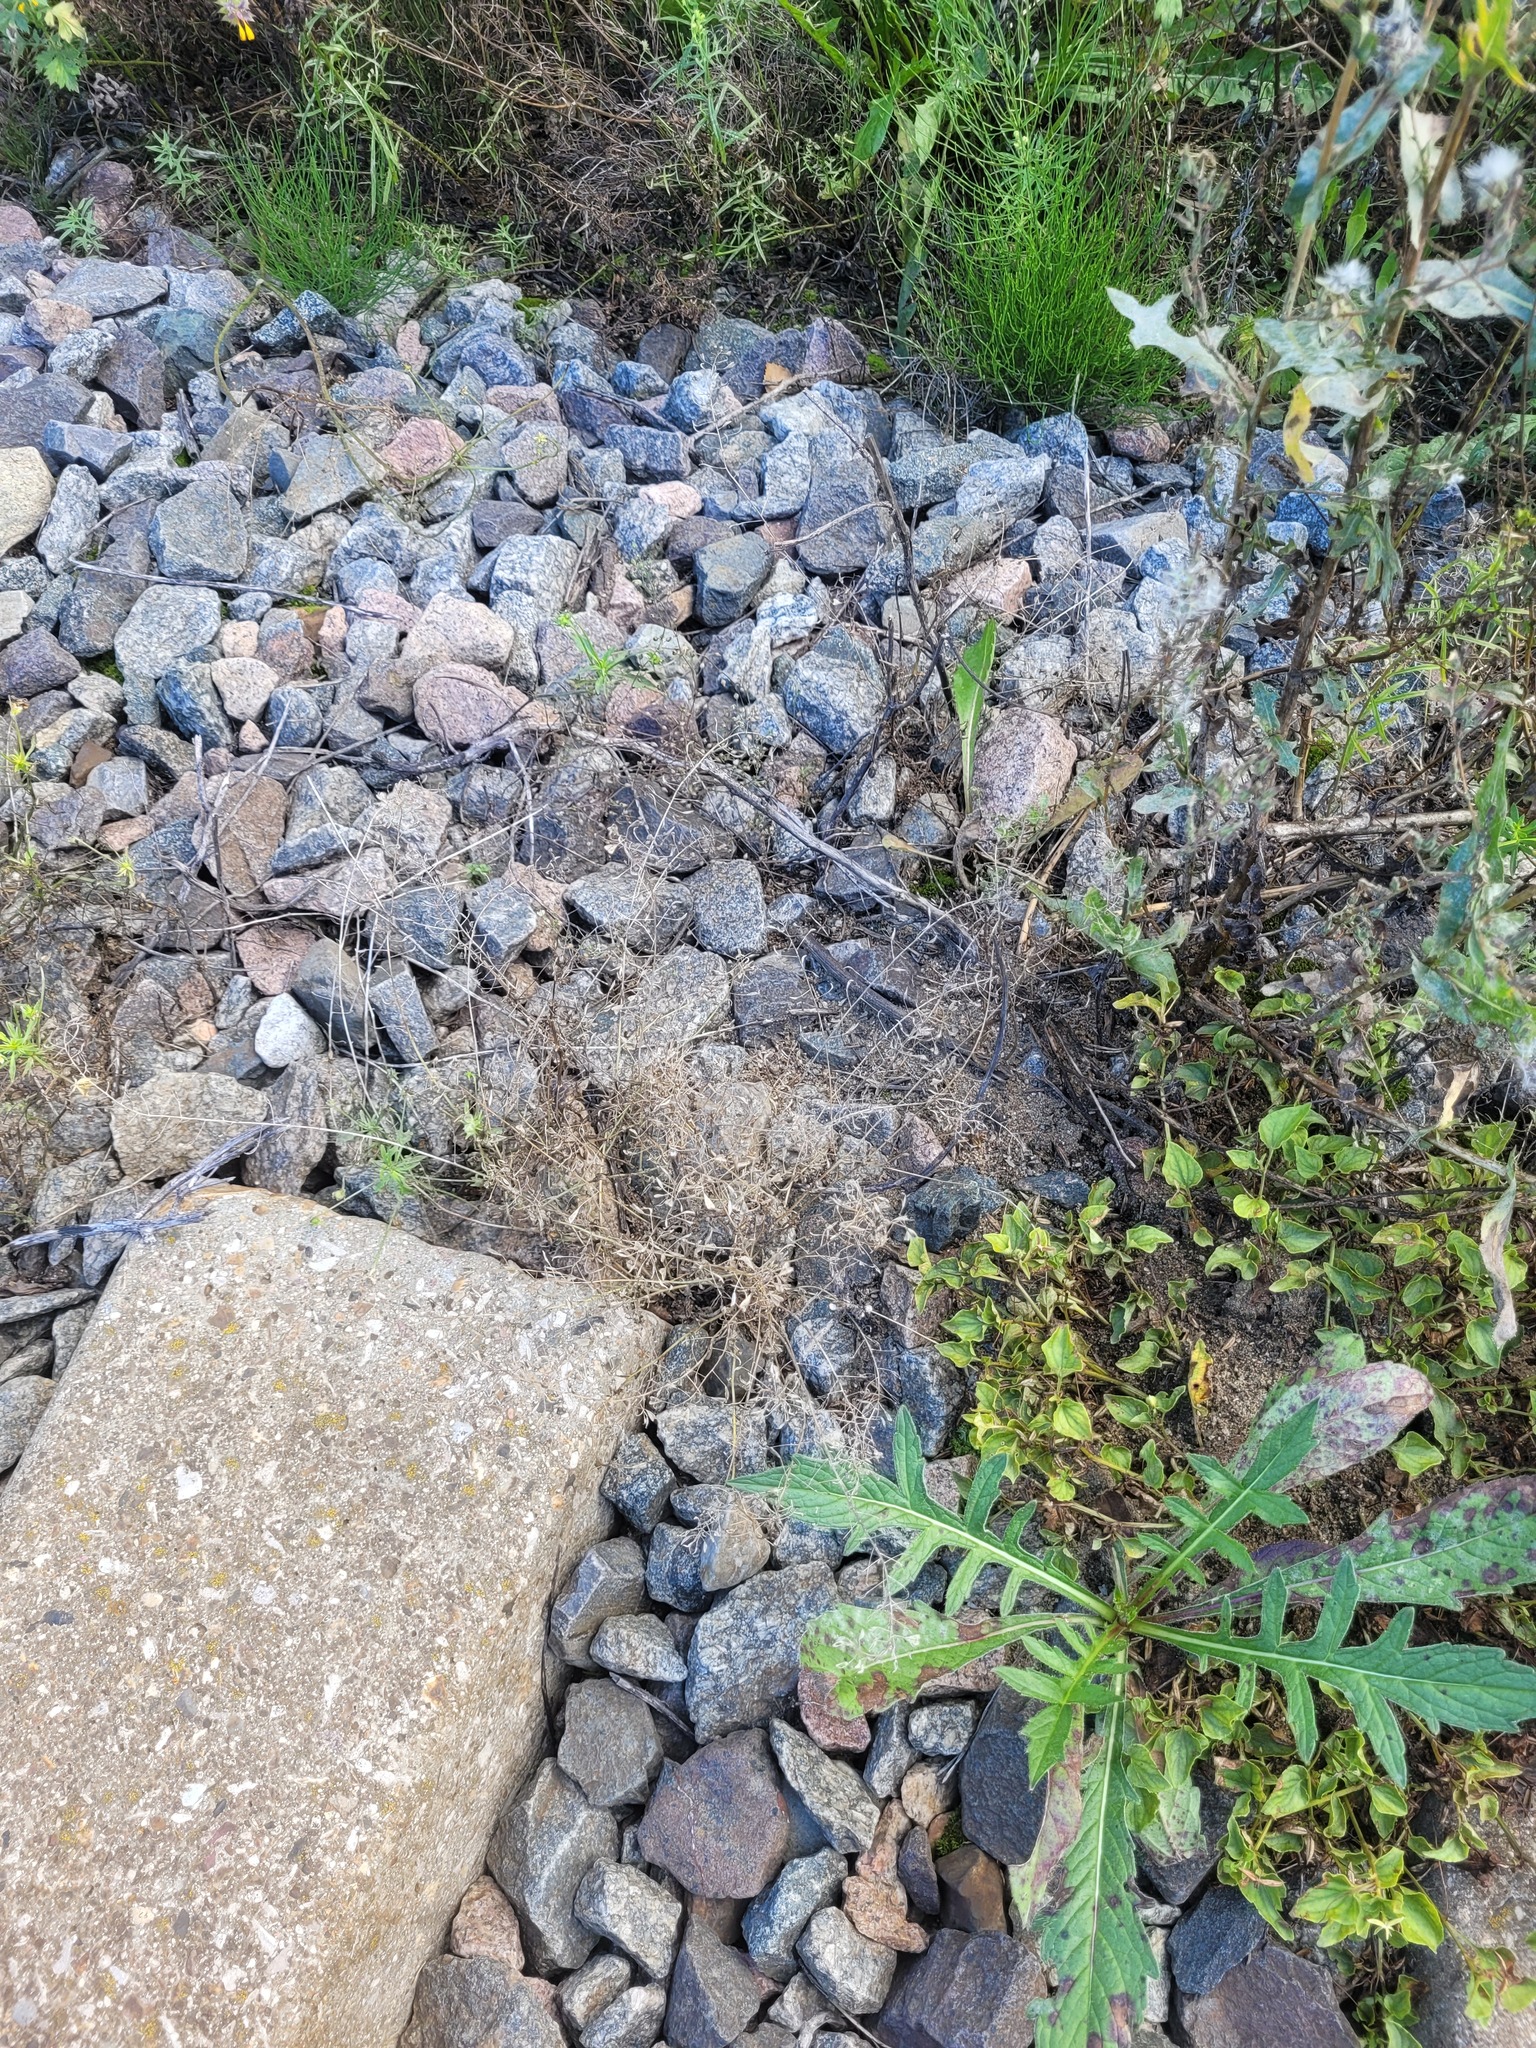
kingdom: Plantae
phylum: Tracheophyta
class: Magnoliopsida
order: Brassicales
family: Brassicaceae
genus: Capsella
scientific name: Capsella bursa-pastoris
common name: Shepherd's purse
